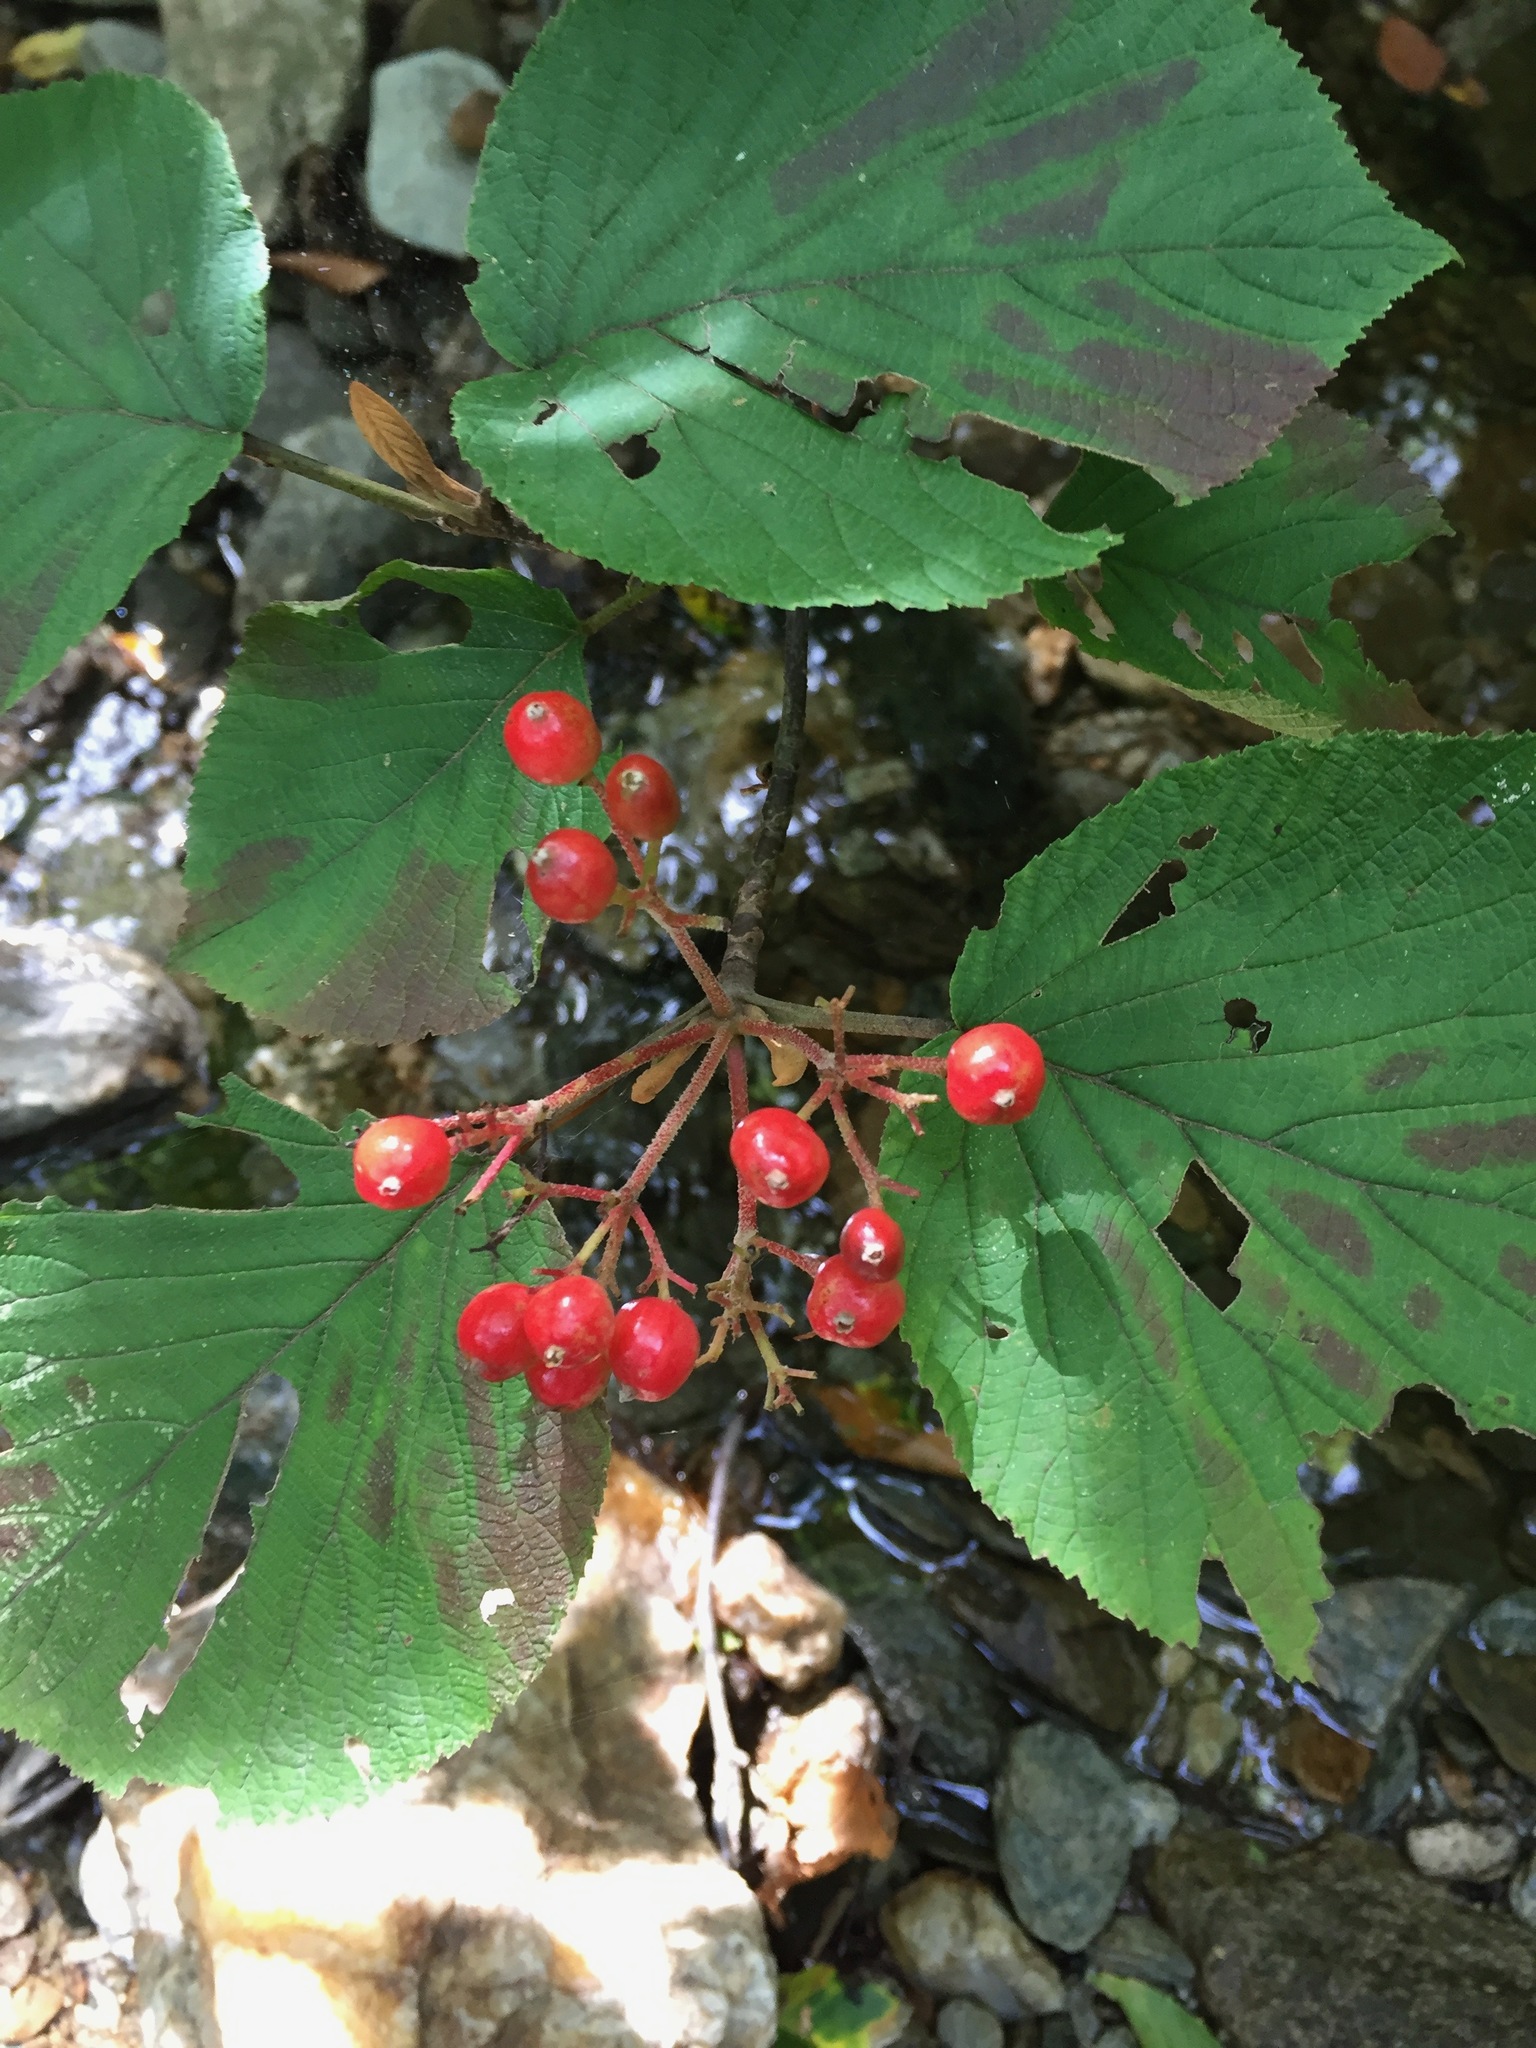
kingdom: Plantae
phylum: Tracheophyta
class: Magnoliopsida
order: Dipsacales
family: Viburnaceae
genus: Viburnum
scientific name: Viburnum lantanoides
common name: Hobblebush
